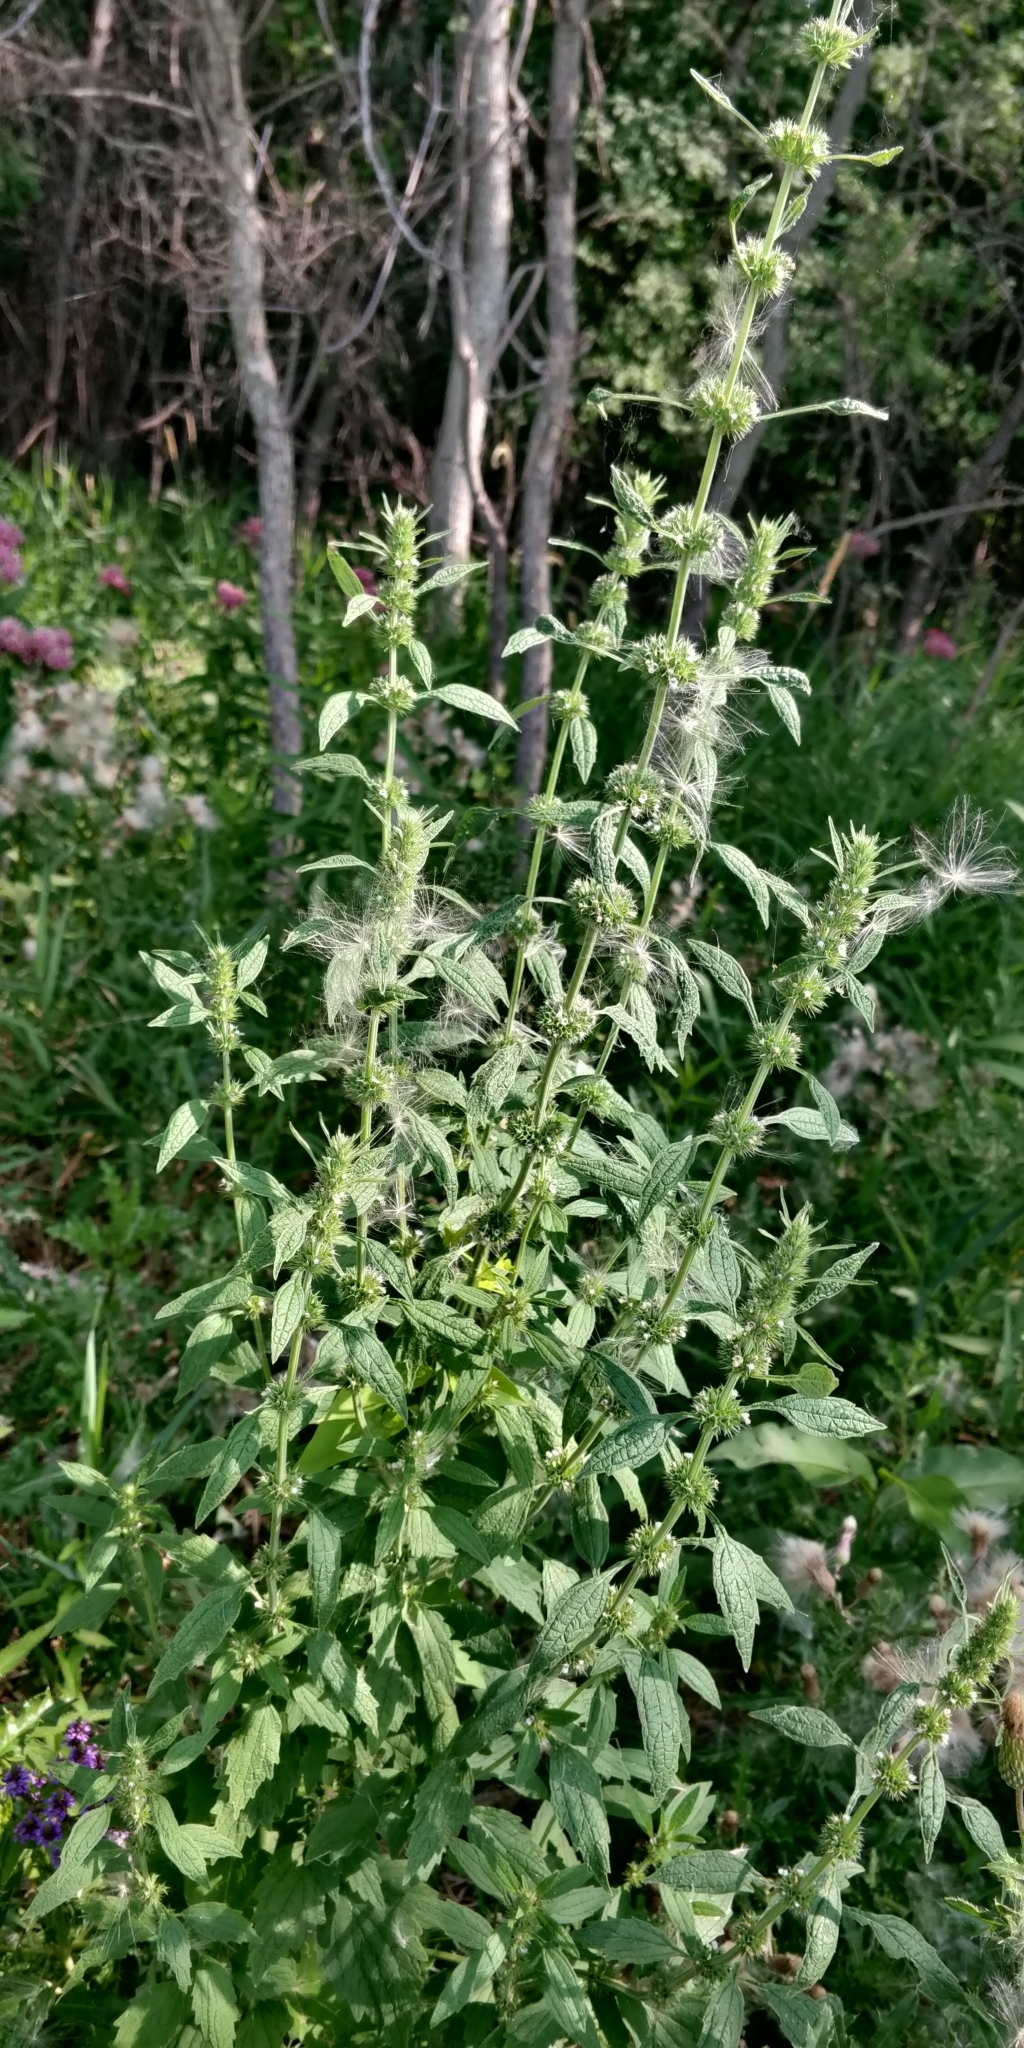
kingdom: Plantae
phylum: Tracheophyta
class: Magnoliopsida
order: Lamiales
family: Lamiaceae
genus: Chaiturus
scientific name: Chaiturus marrubiastrum
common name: Lion's tail
